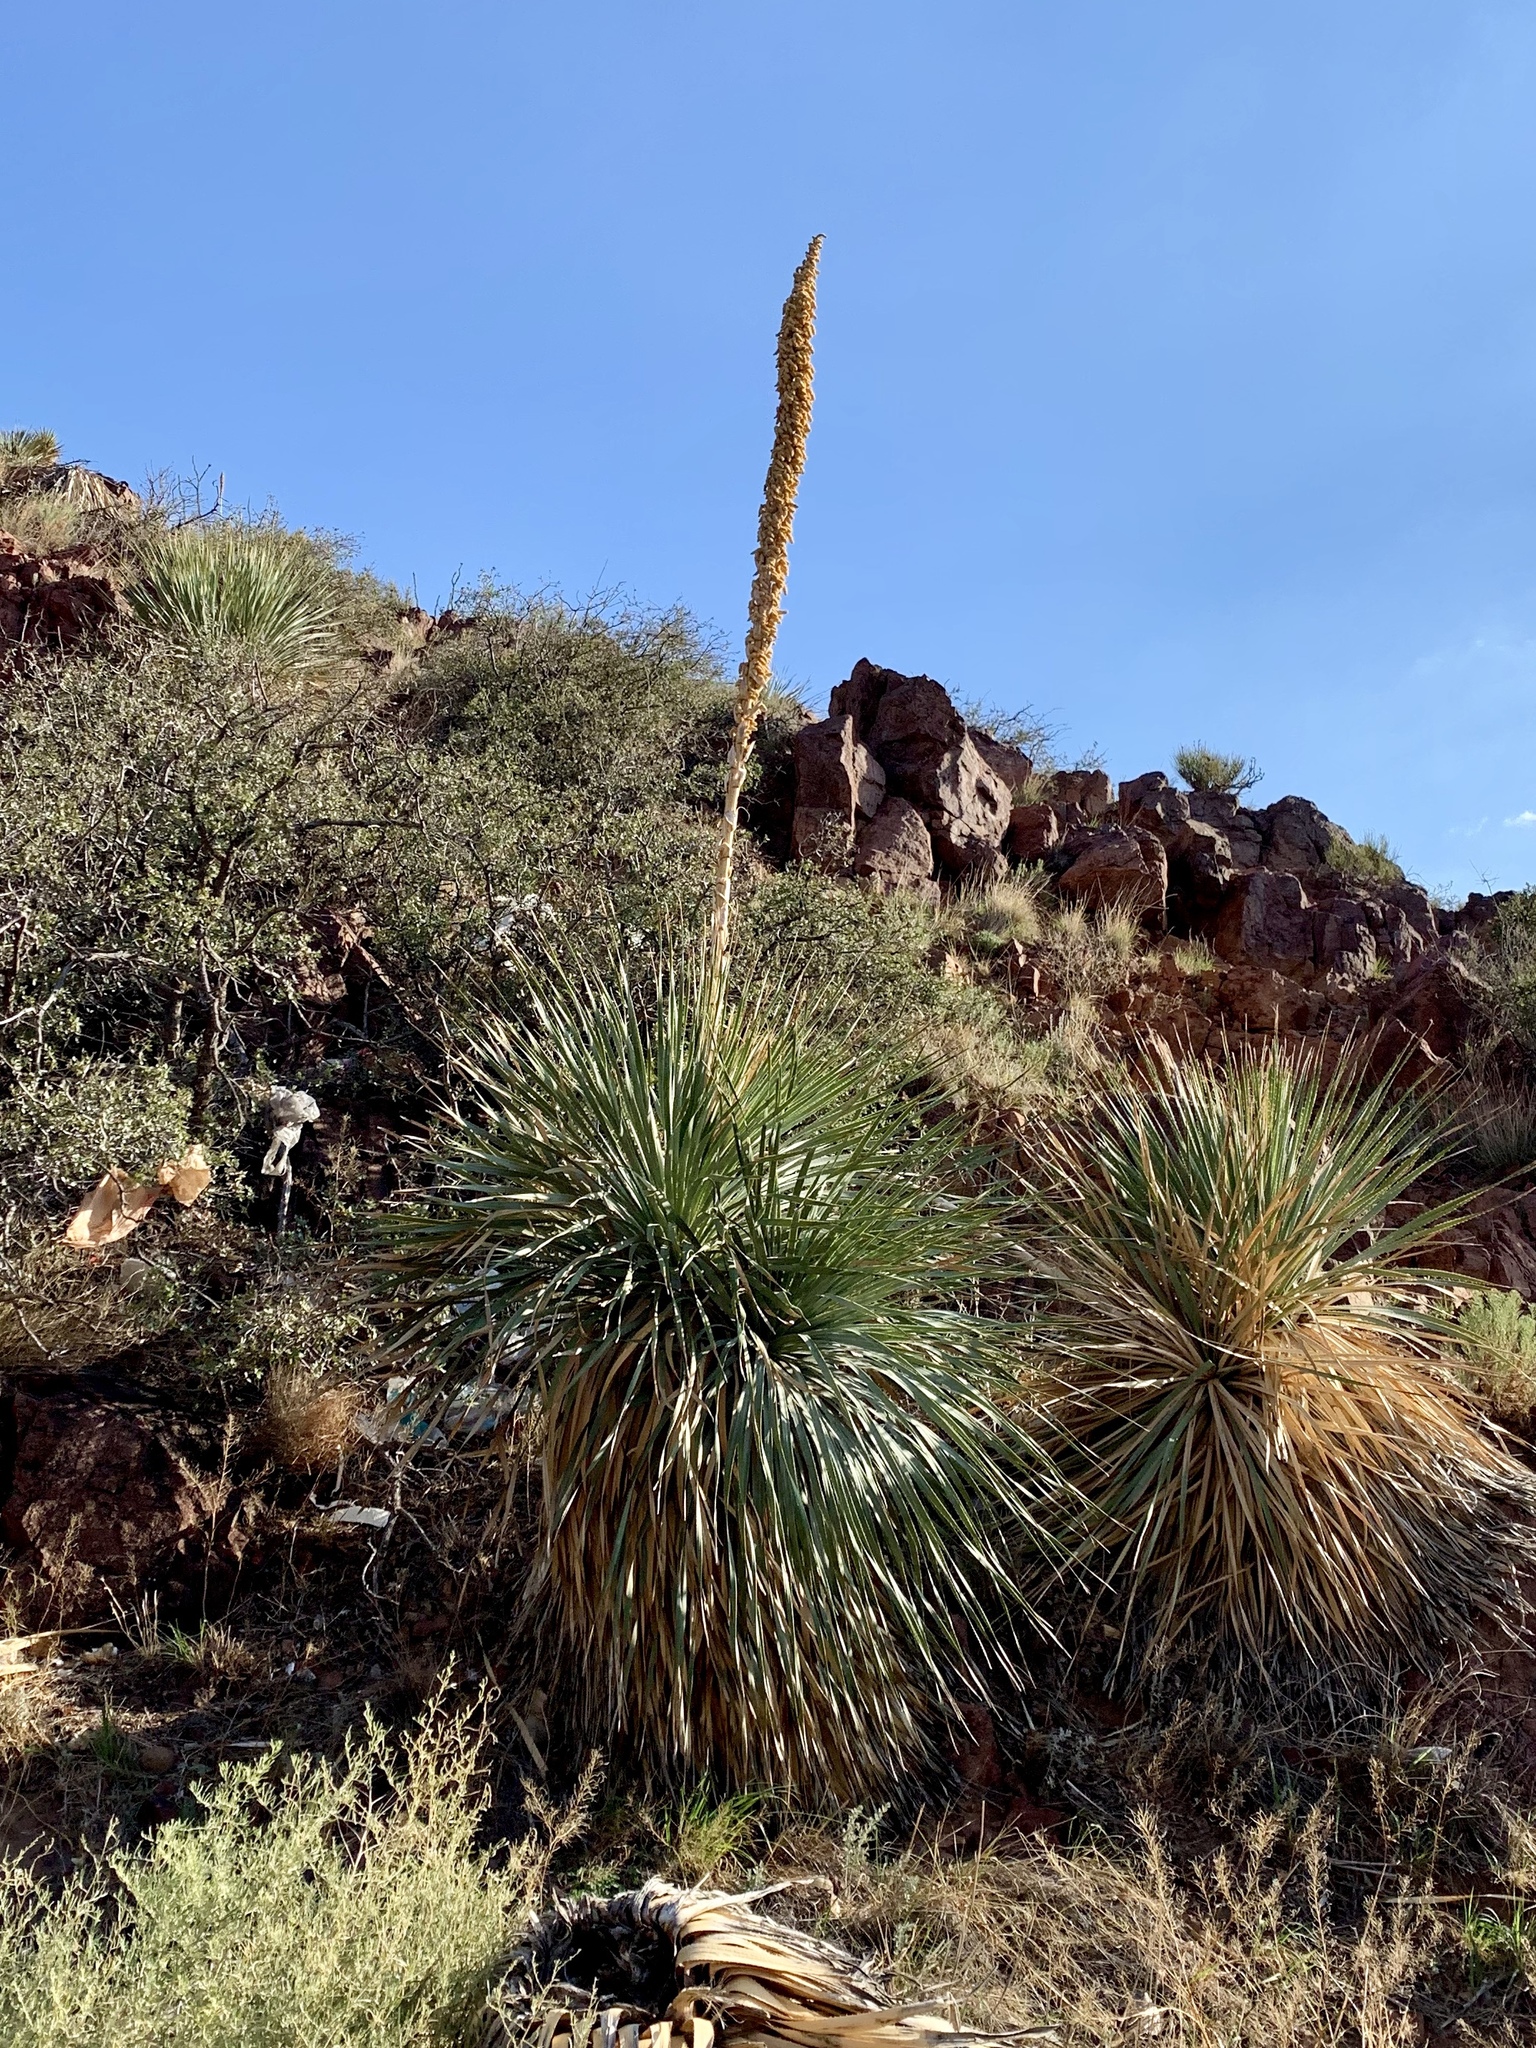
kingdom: Plantae
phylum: Tracheophyta
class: Liliopsida
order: Asparagales
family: Asparagaceae
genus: Dasylirion
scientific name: Dasylirion wheeleri
